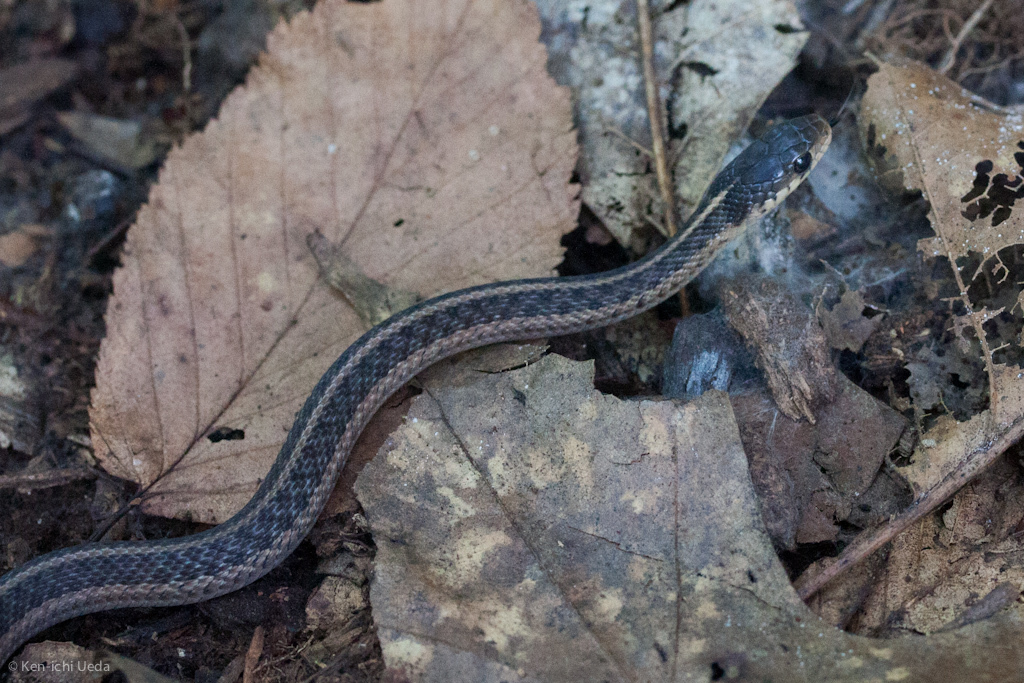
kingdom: Animalia
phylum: Chordata
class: Squamata
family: Colubridae
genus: Thamnophis
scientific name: Thamnophis sirtalis
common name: Common garter snake
